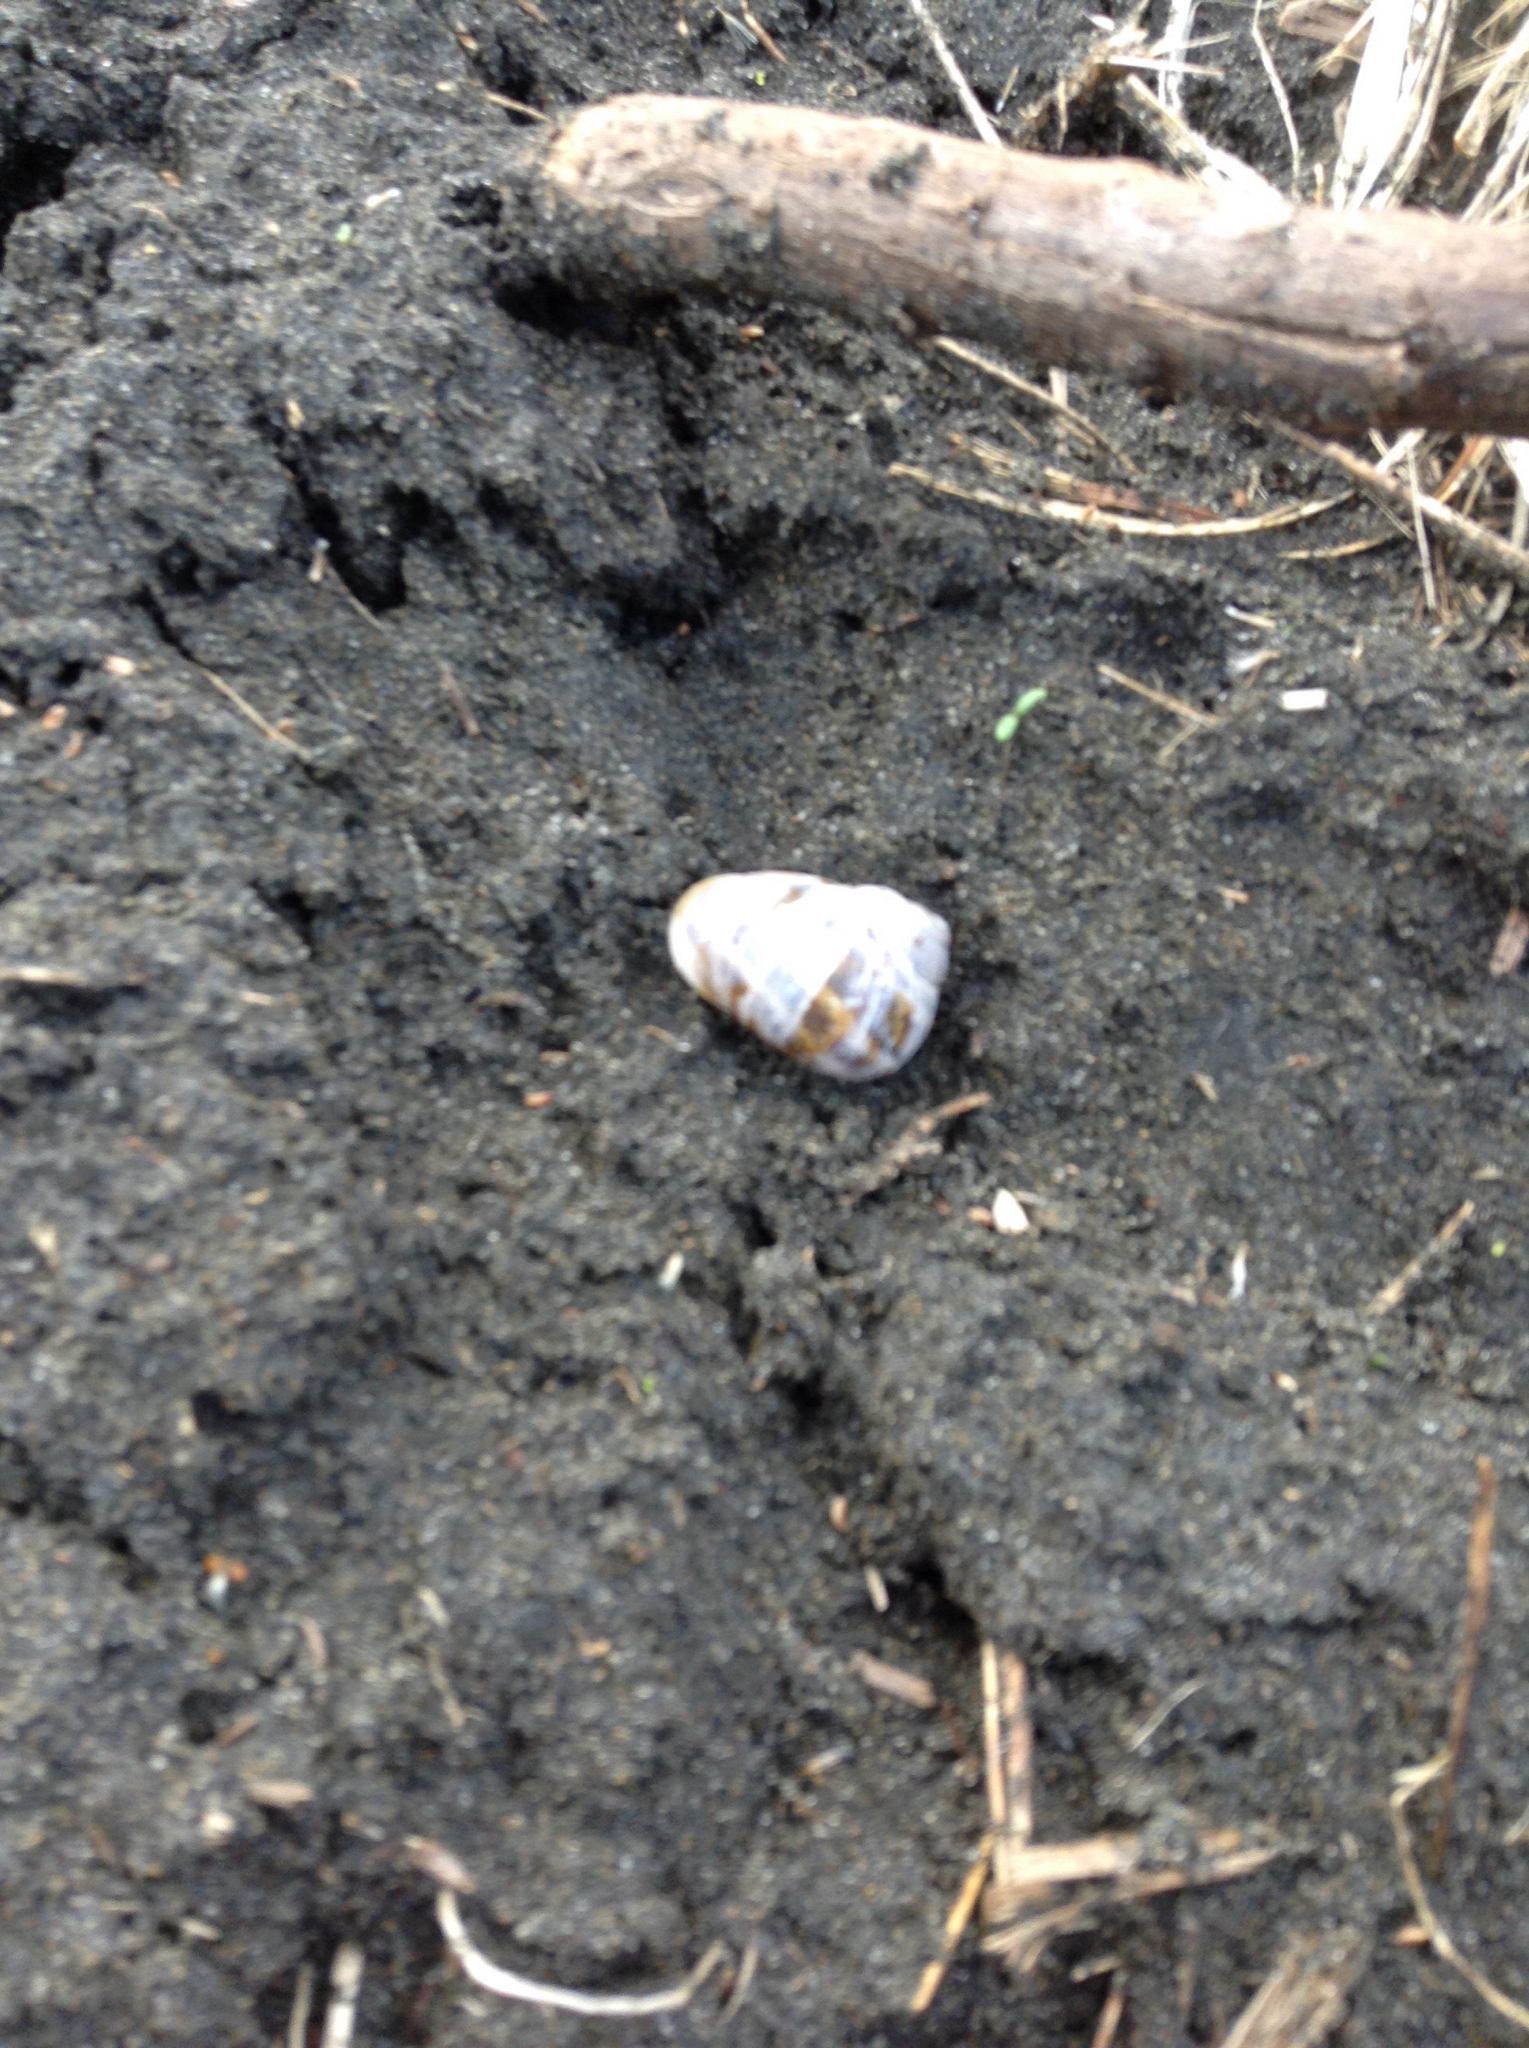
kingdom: Animalia
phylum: Mollusca
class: Gastropoda
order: Stylommatophora
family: Helicidae
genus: Cornu
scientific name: Cornu aspersum
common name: Brown garden snail
